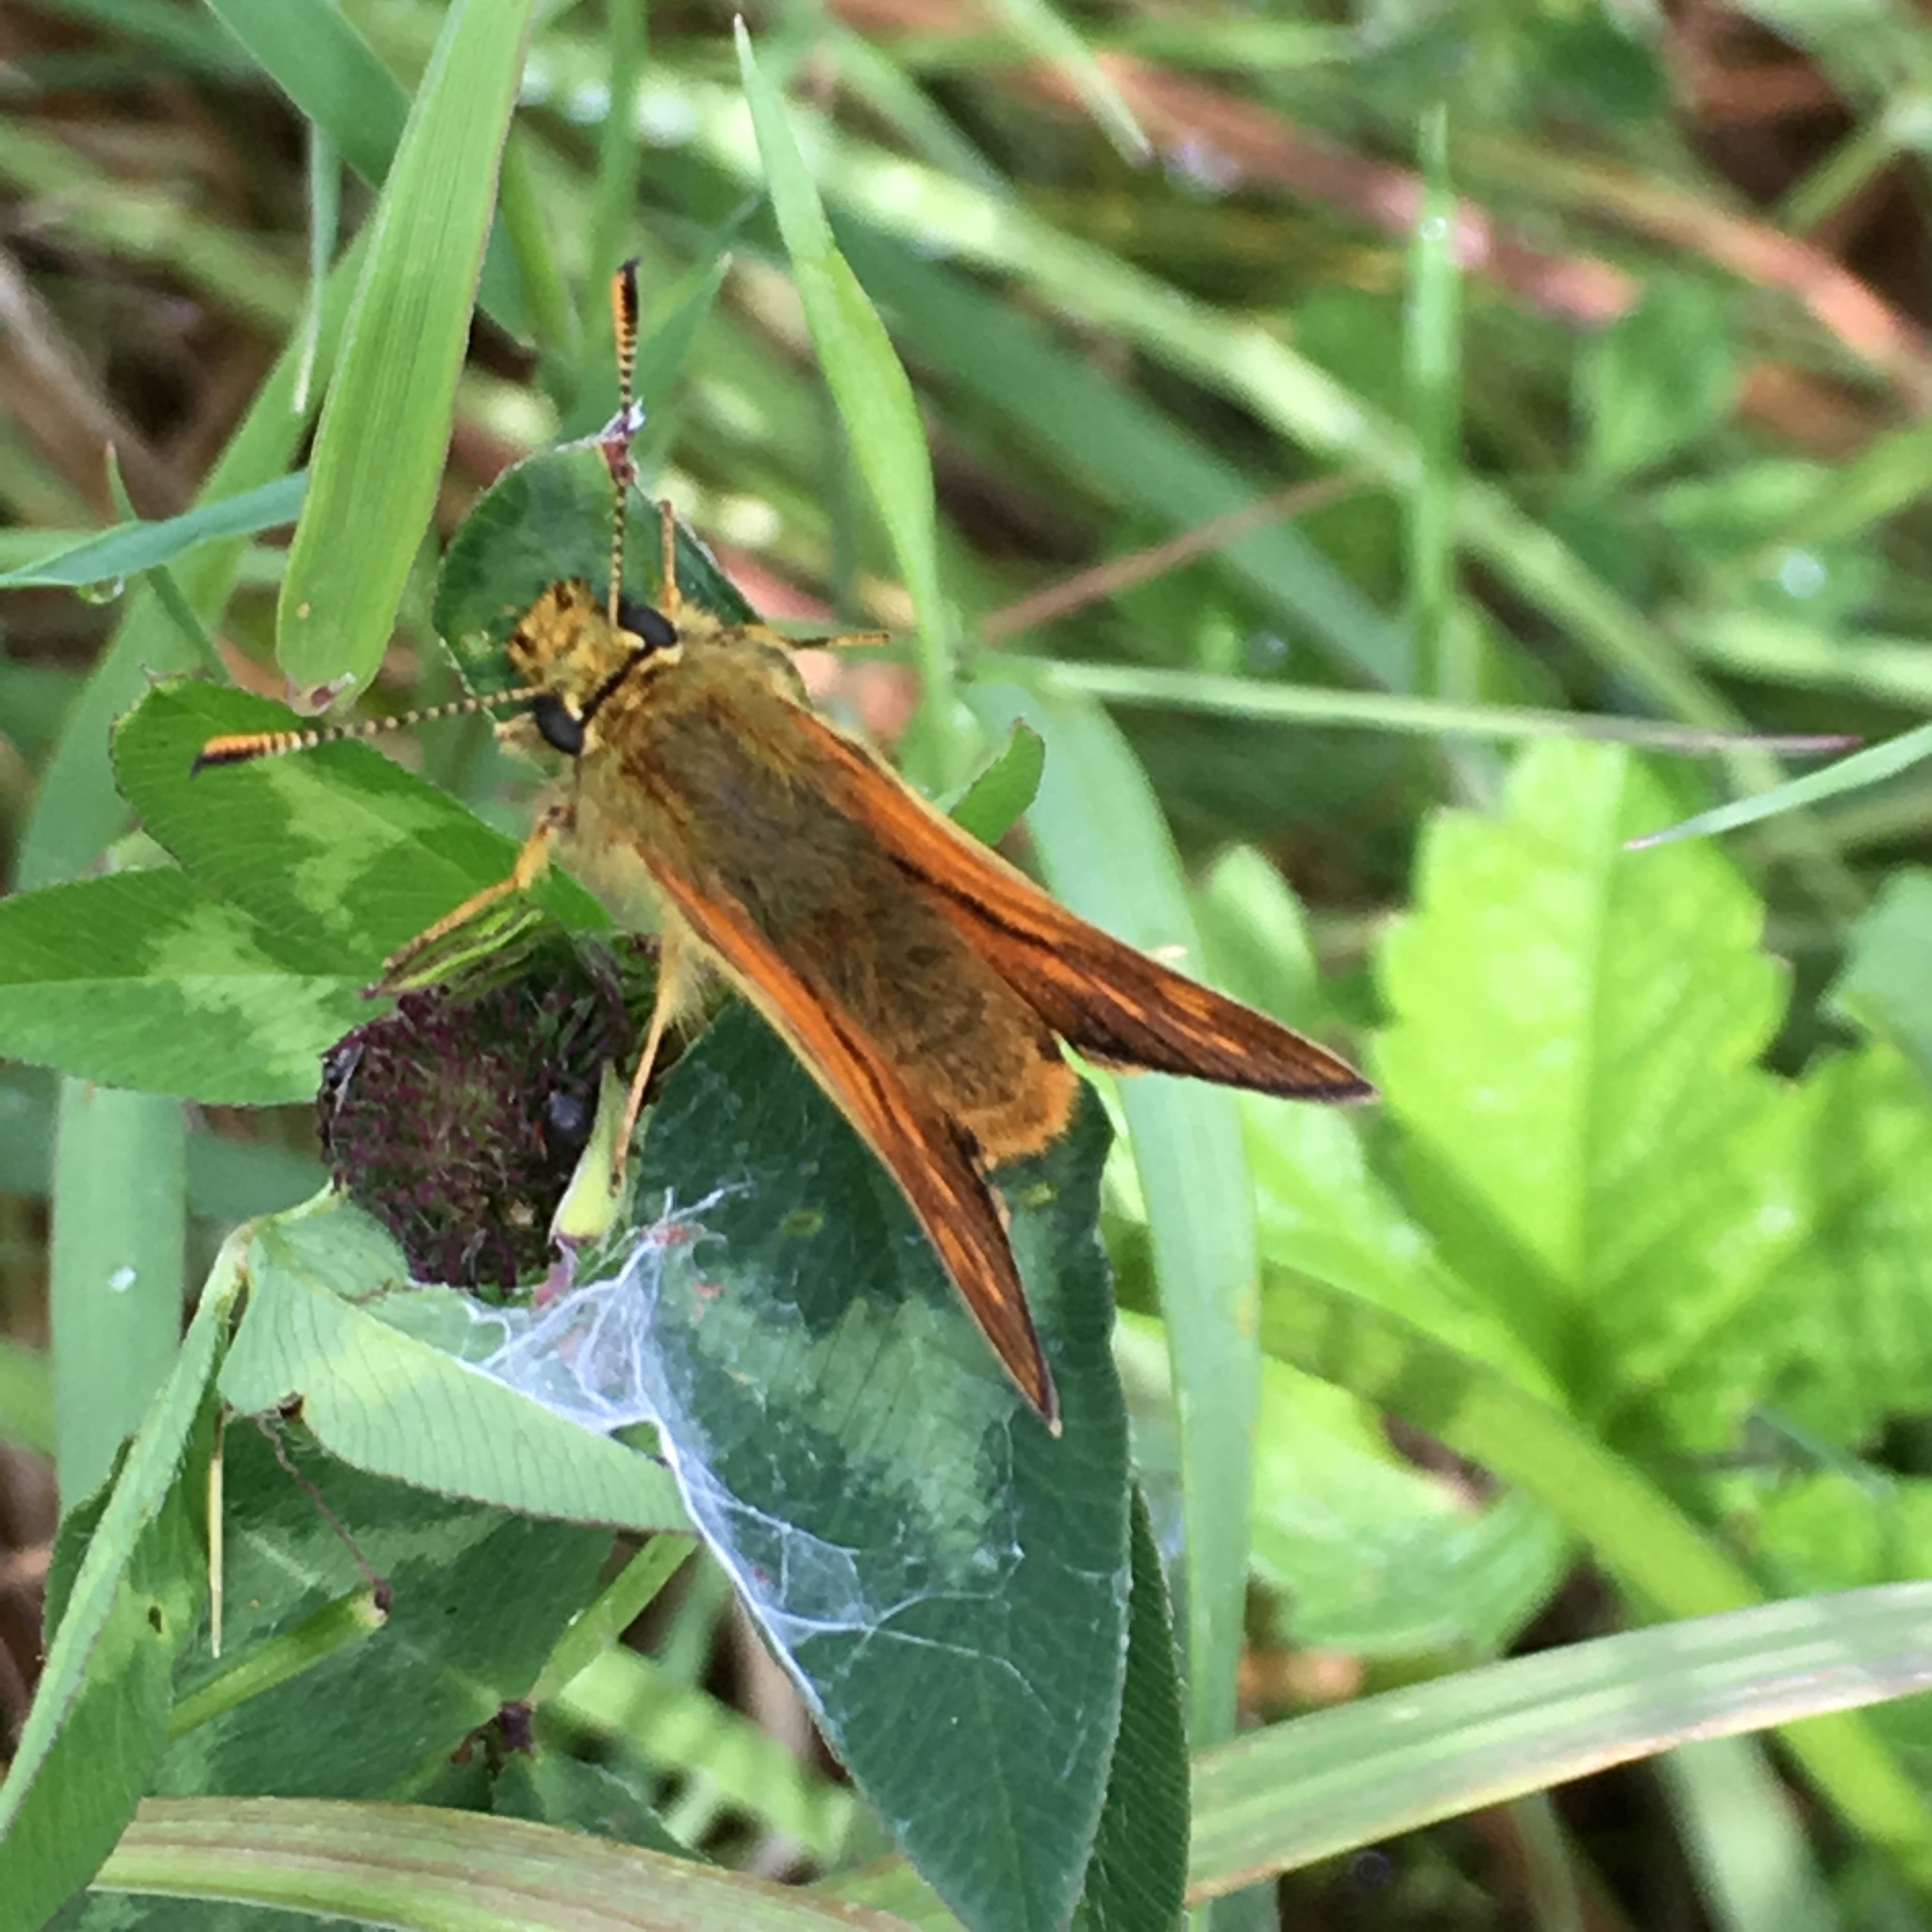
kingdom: Animalia
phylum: Arthropoda
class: Insecta
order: Lepidoptera
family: Hesperiidae
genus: Ochlodes
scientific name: Ochlodes venata
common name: Large skipper
